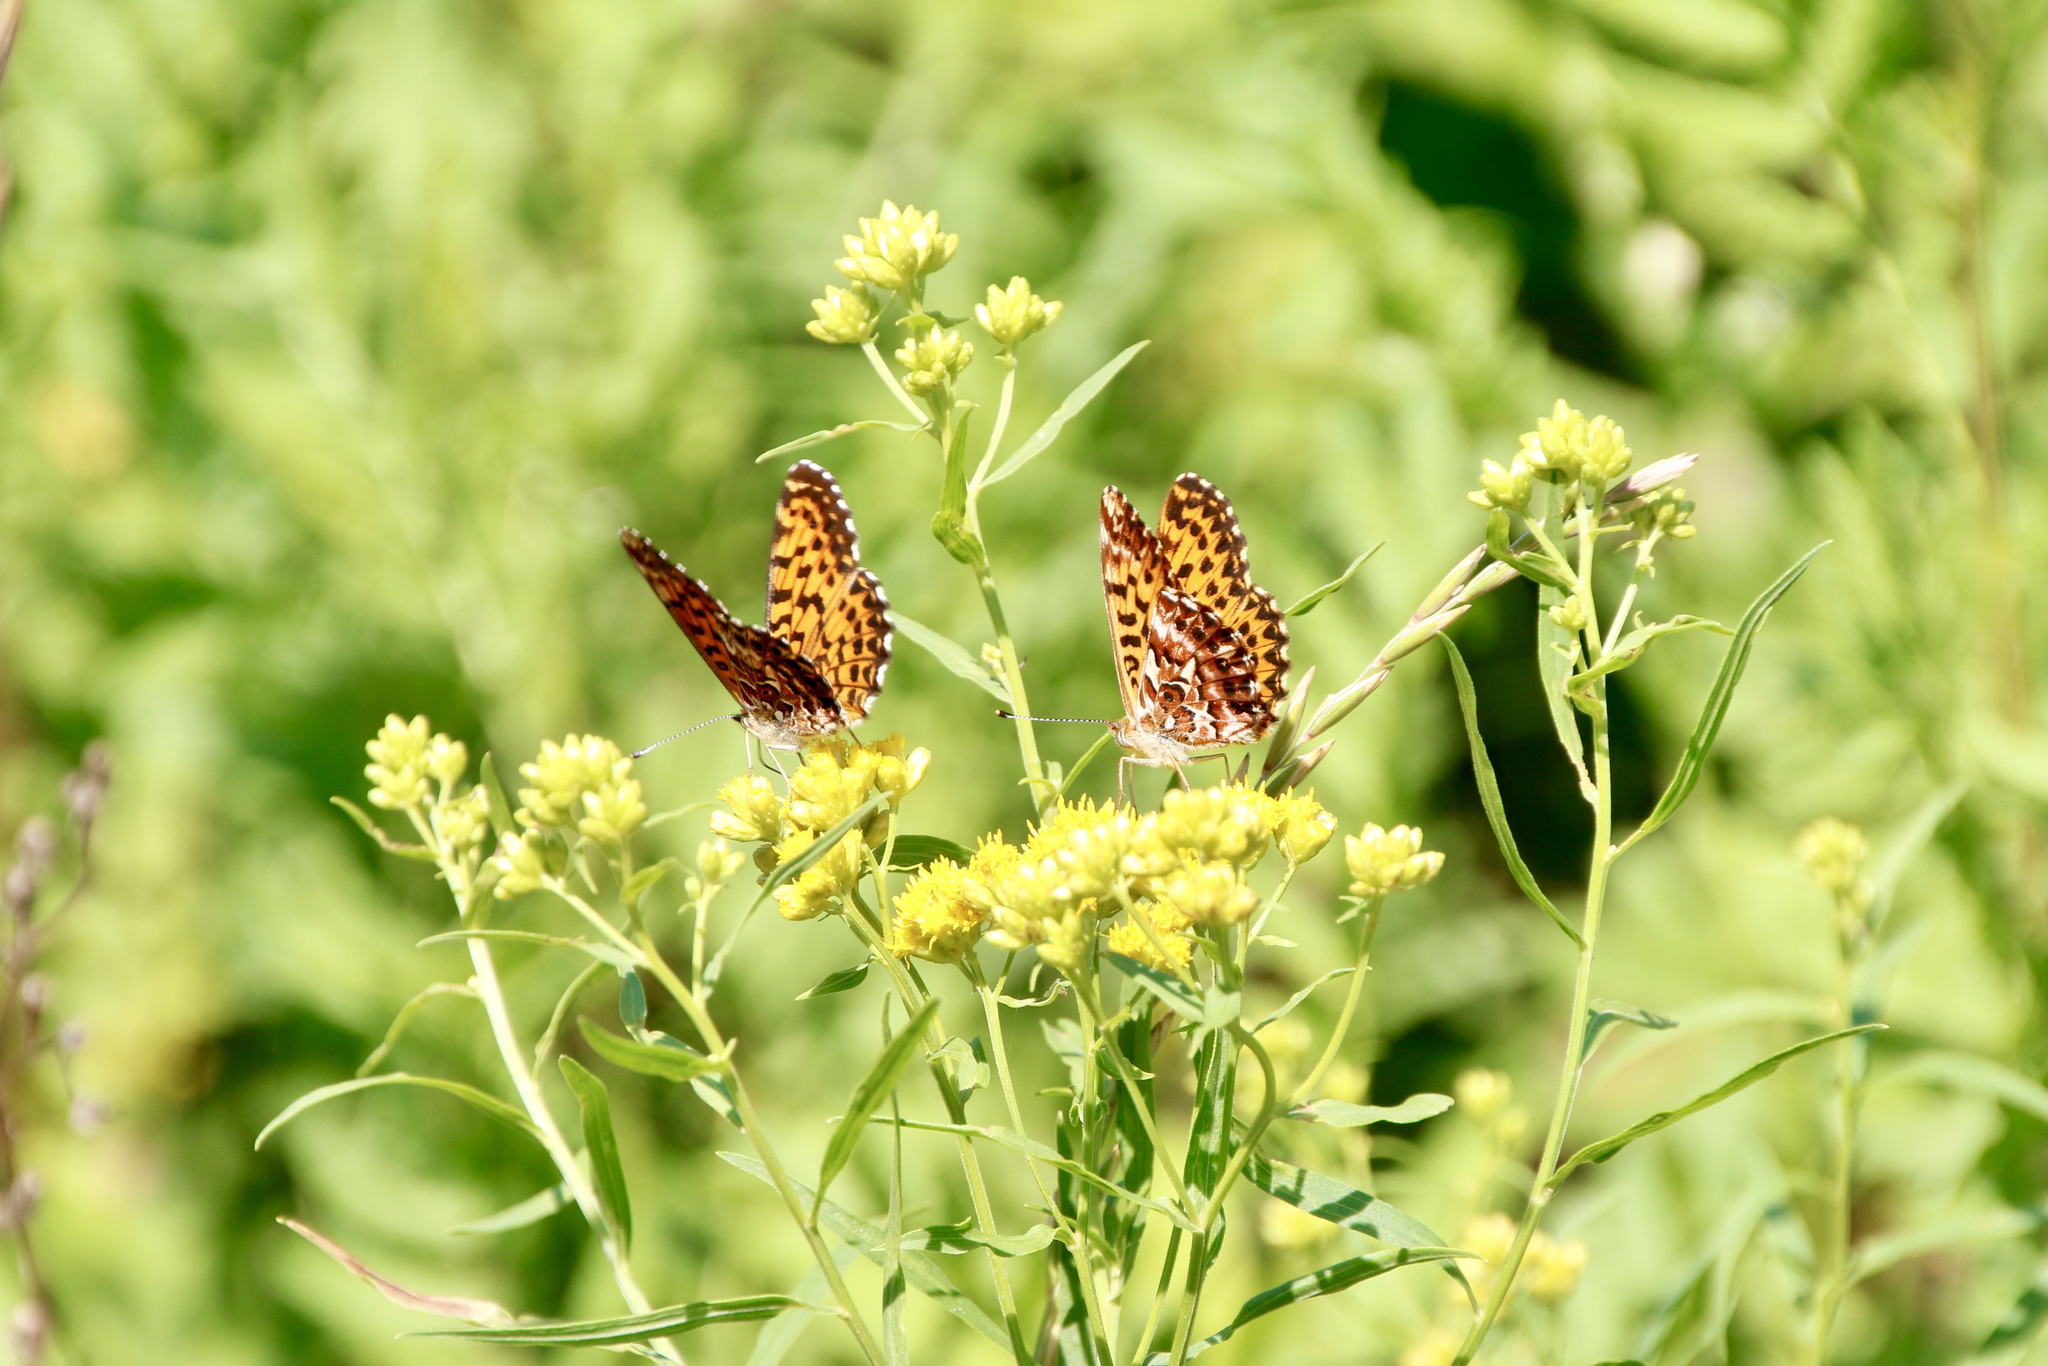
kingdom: Animalia
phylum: Arthropoda
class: Insecta
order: Lepidoptera
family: Nymphalidae
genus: Boloria
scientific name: Boloria chariclea
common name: Arctic fritillary
